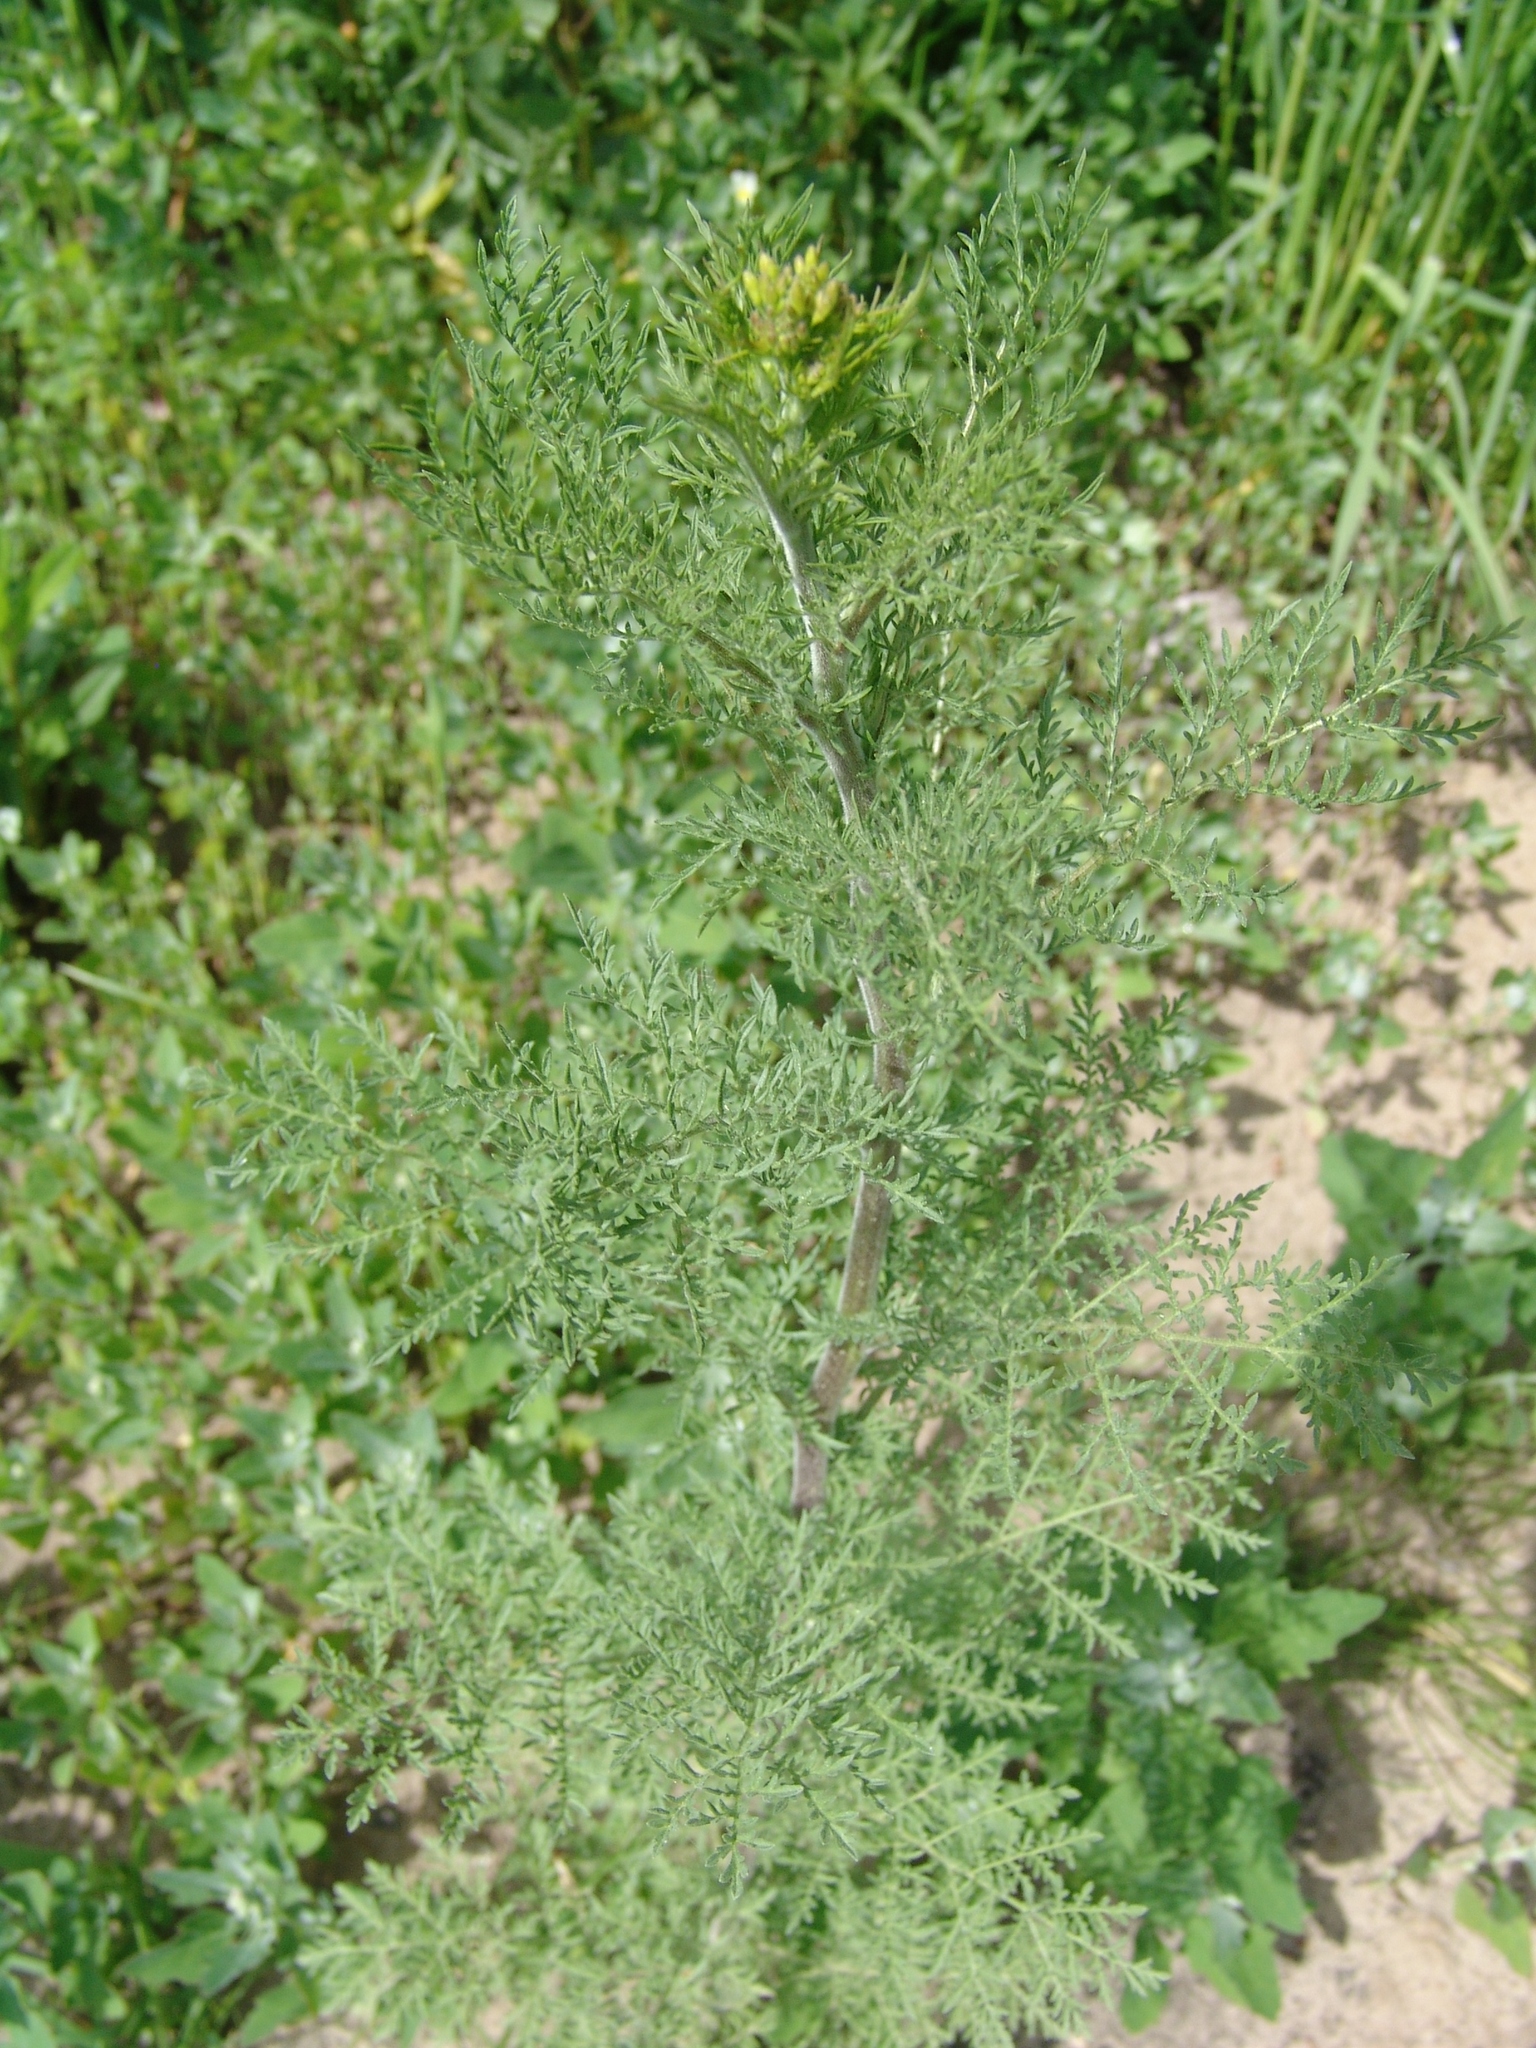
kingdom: Plantae
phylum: Tracheophyta
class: Magnoliopsida
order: Brassicales
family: Brassicaceae
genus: Descurainia
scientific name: Descurainia sophia
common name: Flixweed
